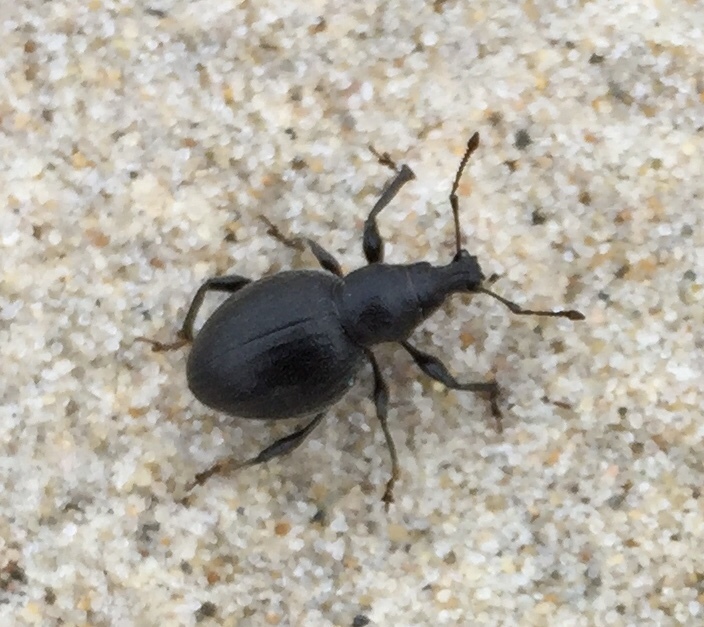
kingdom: Animalia
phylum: Arthropoda
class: Insecta
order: Coleoptera
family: Curculionidae
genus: Otiorhynchus
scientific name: Otiorhynchus atroapterus
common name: Black marram weevil
